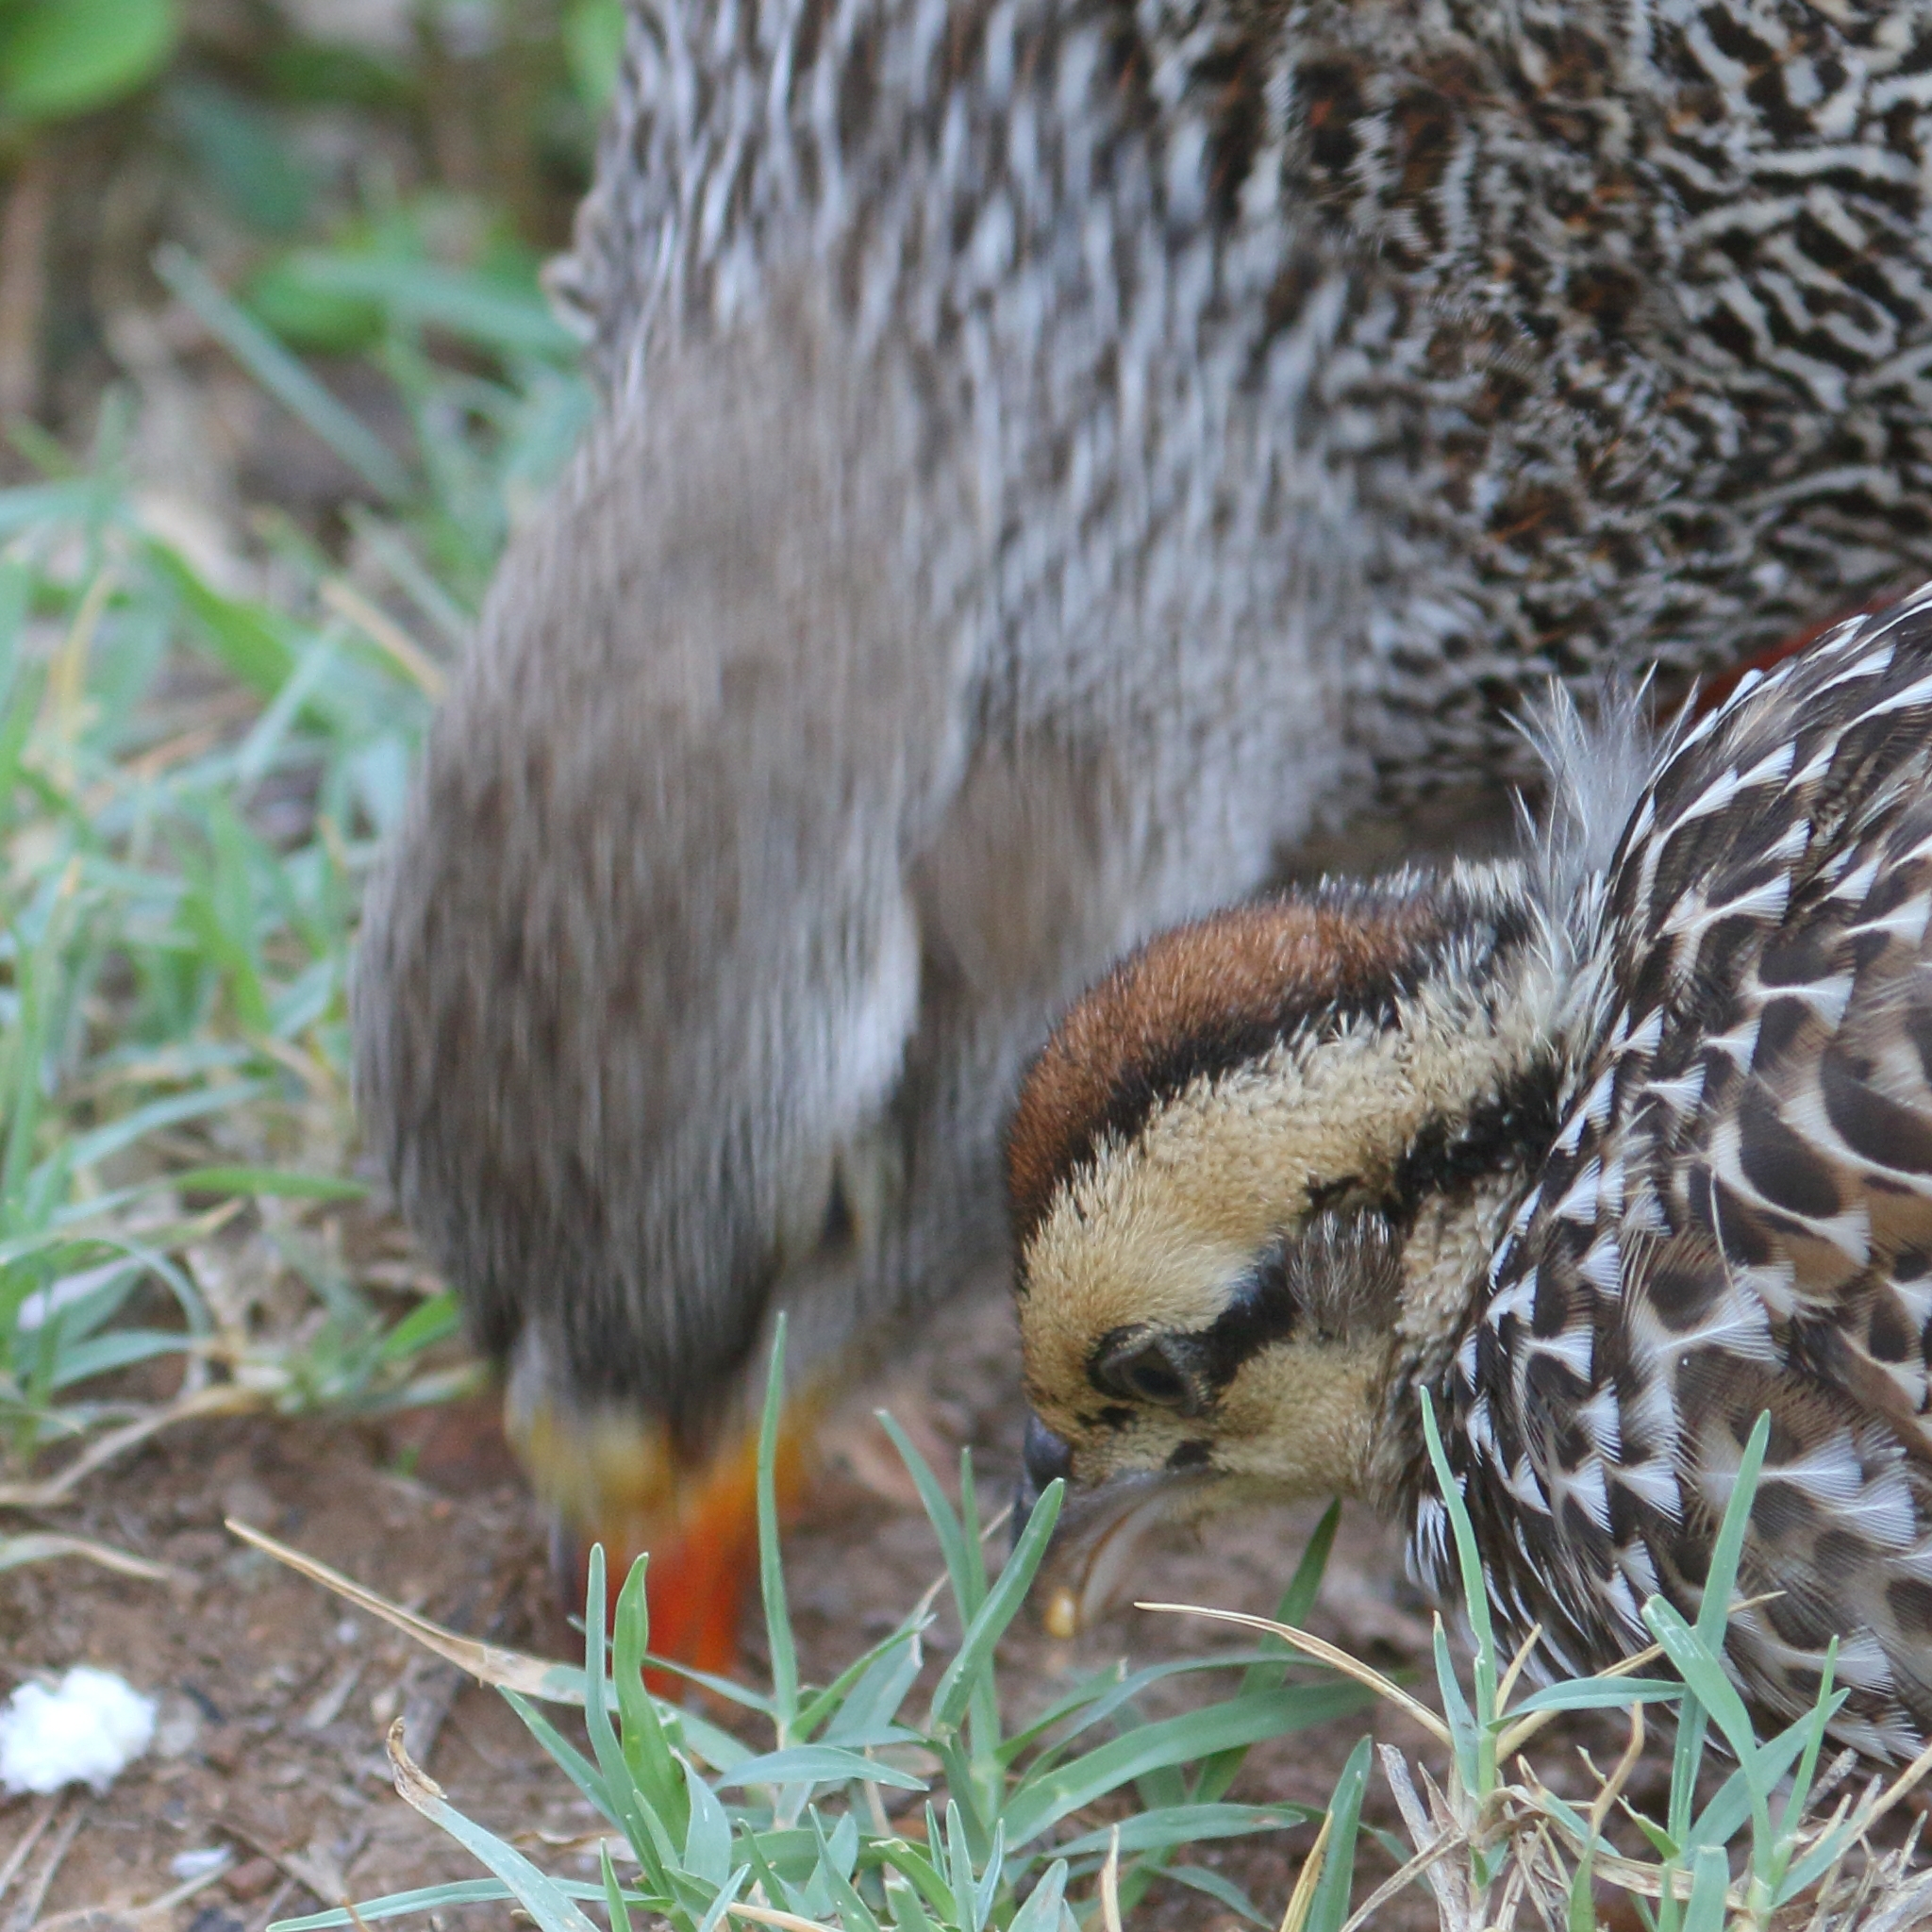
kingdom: Animalia
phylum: Chordata
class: Aves
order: Galliformes
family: Phasianidae
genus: Pternistis
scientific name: Pternistis natalensis
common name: Natal spurfowl
